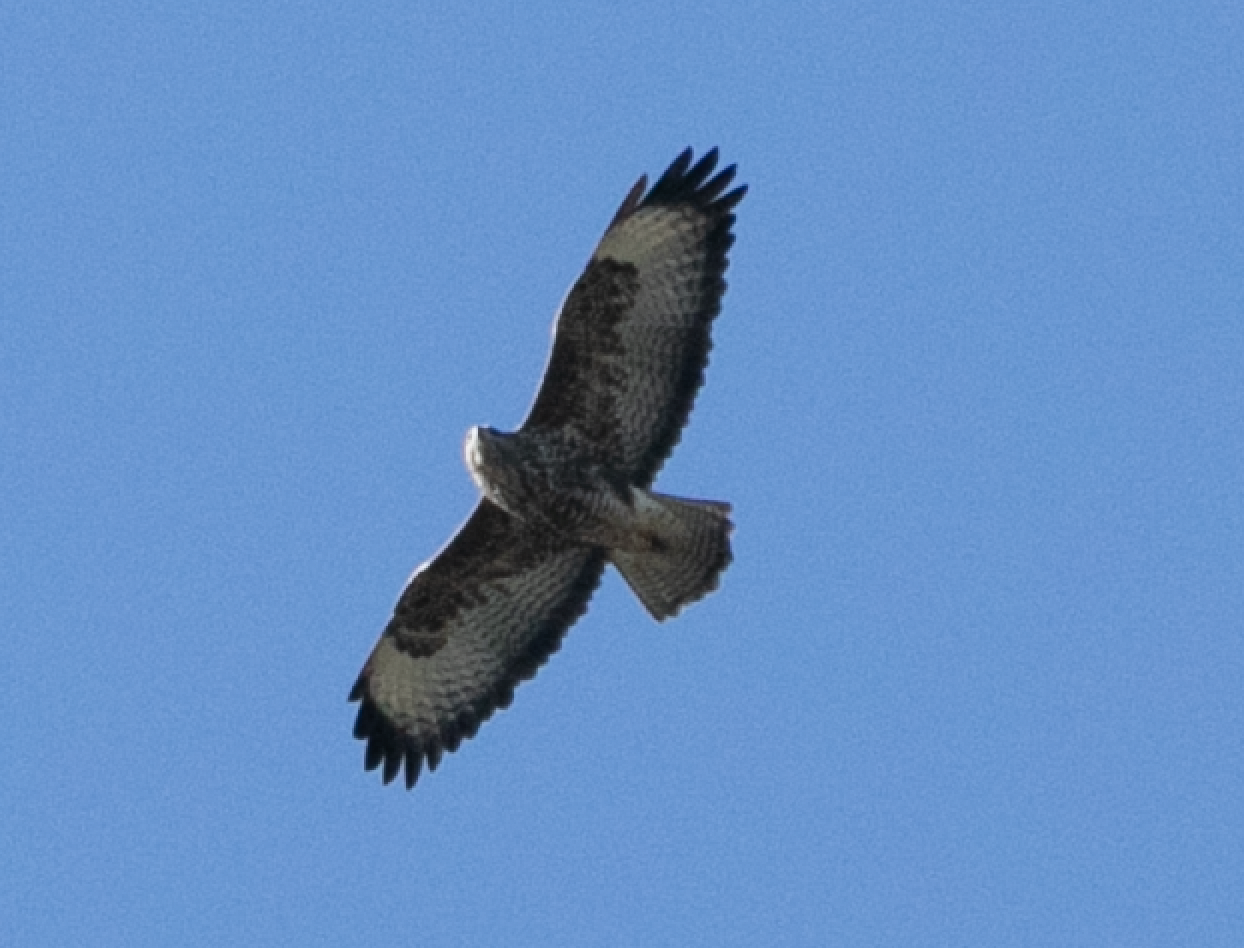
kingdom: Animalia
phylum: Chordata
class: Aves
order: Accipitriformes
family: Accipitridae
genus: Buteo
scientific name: Buteo buteo
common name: Common buzzard
